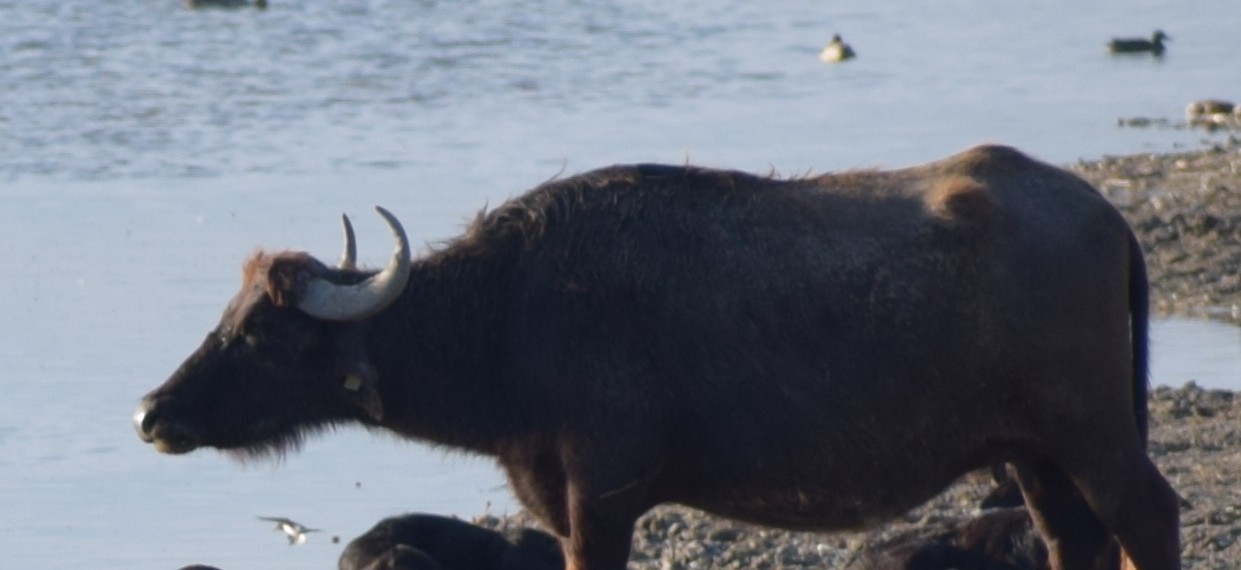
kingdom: Animalia
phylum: Chordata
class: Mammalia
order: Artiodactyla
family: Bovidae
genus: Bubalus
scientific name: Bubalus bubalis
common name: Water buffalo
